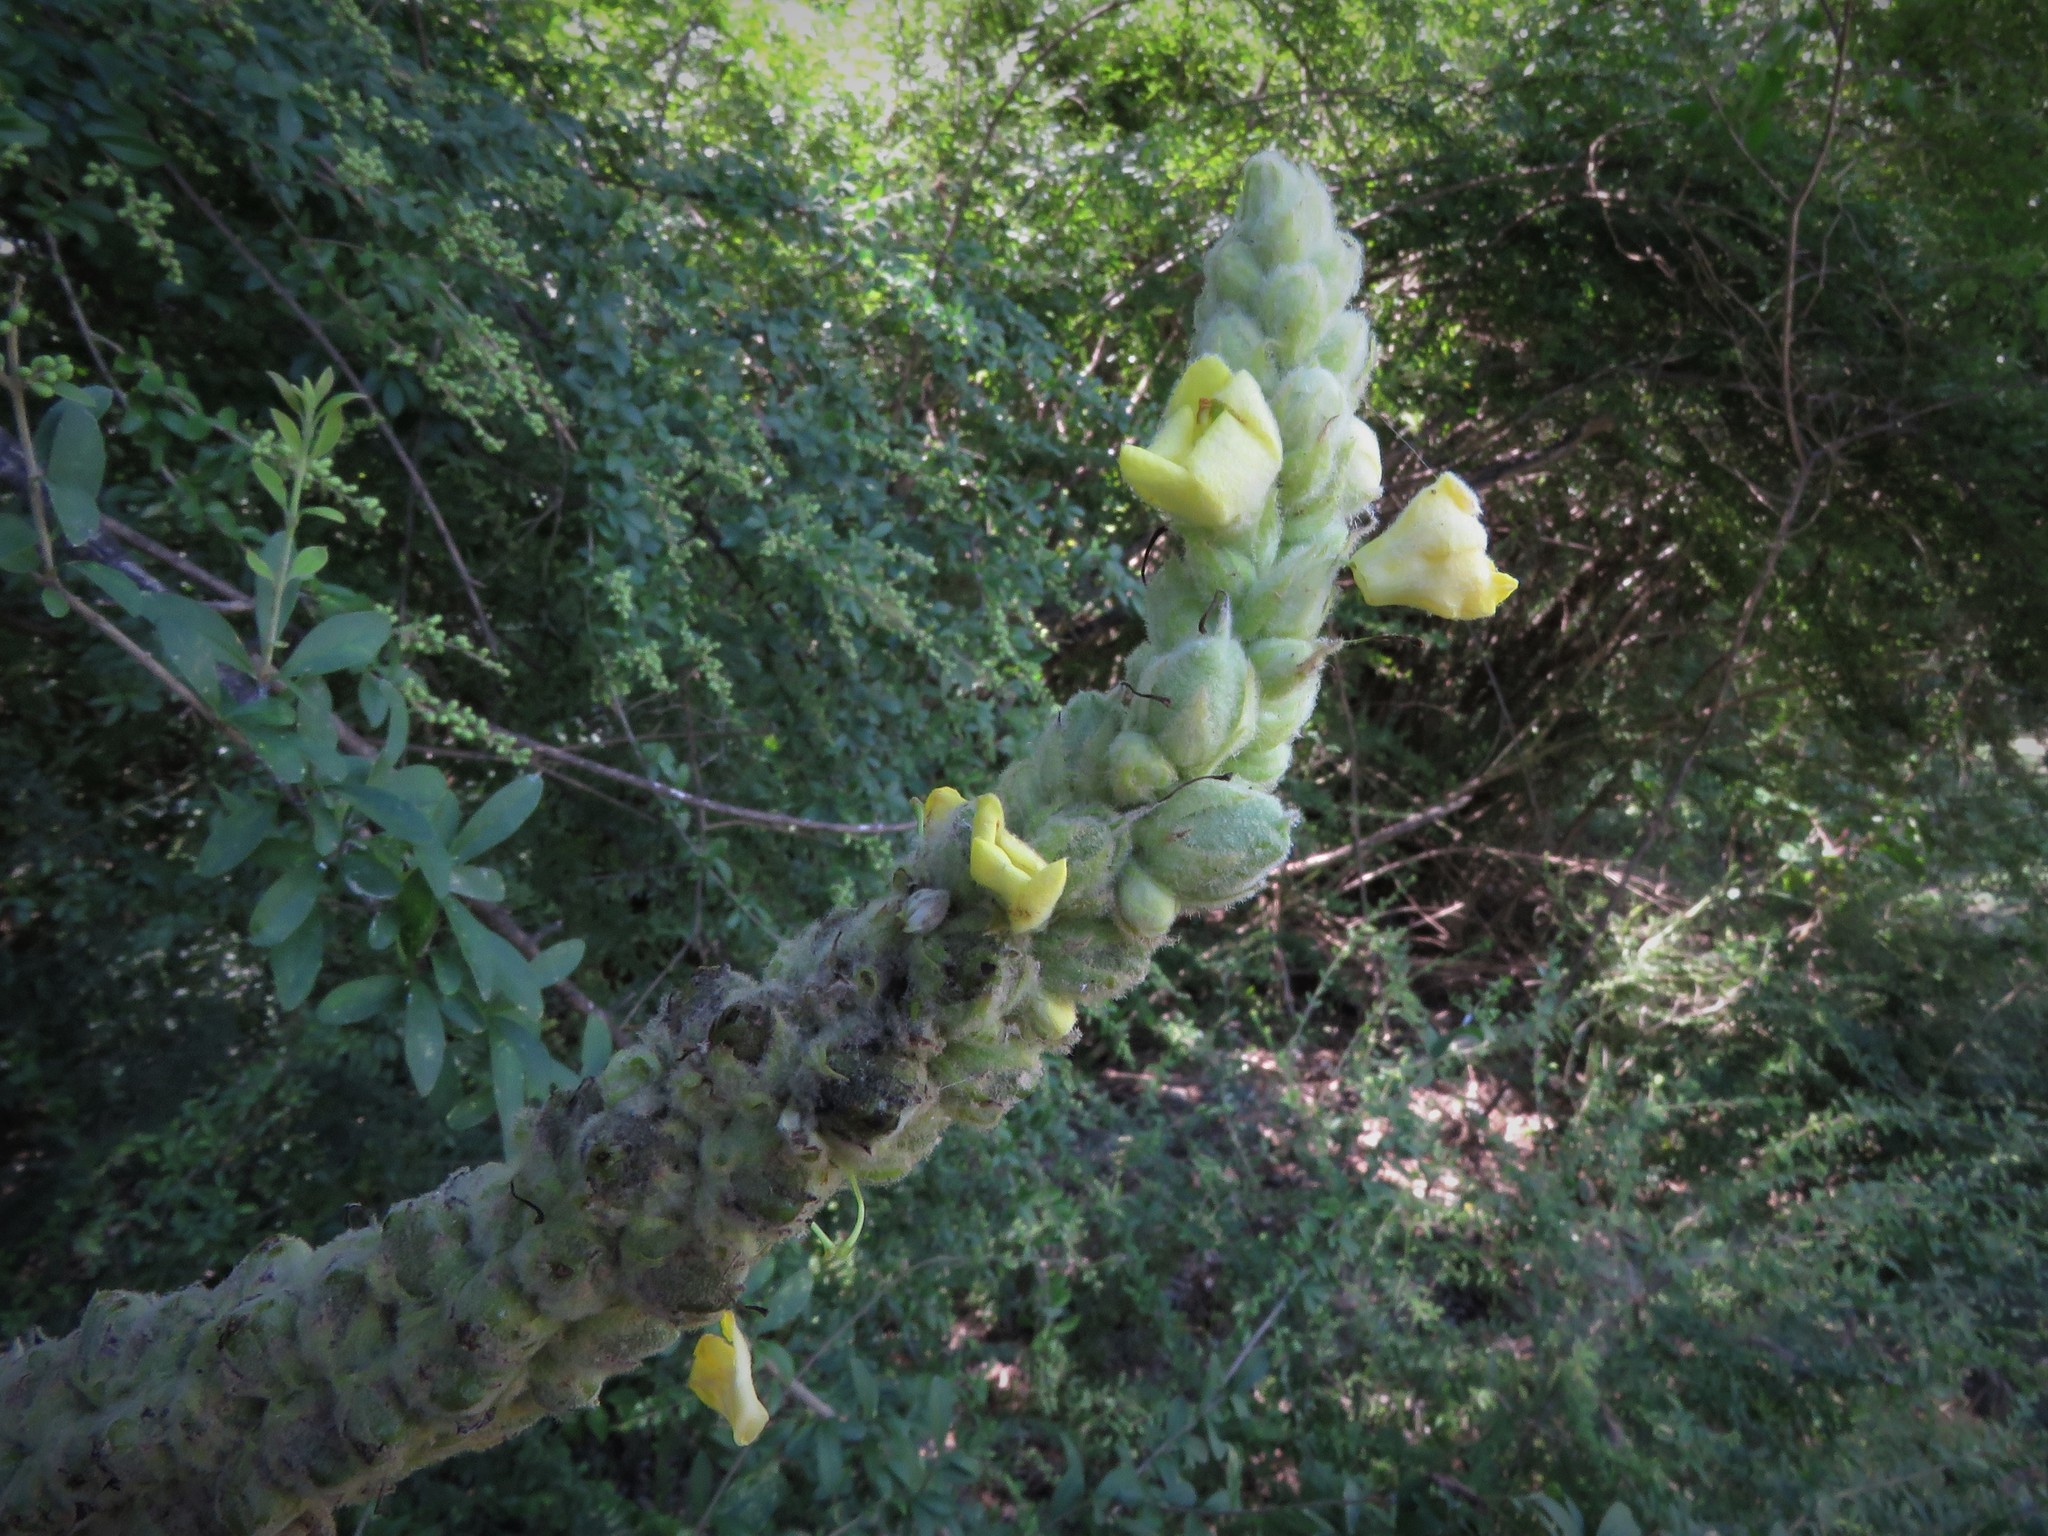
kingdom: Plantae
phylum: Tracheophyta
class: Magnoliopsida
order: Lamiales
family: Scrophulariaceae
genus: Verbascum
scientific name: Verbascum thapsus
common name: Common mullein
